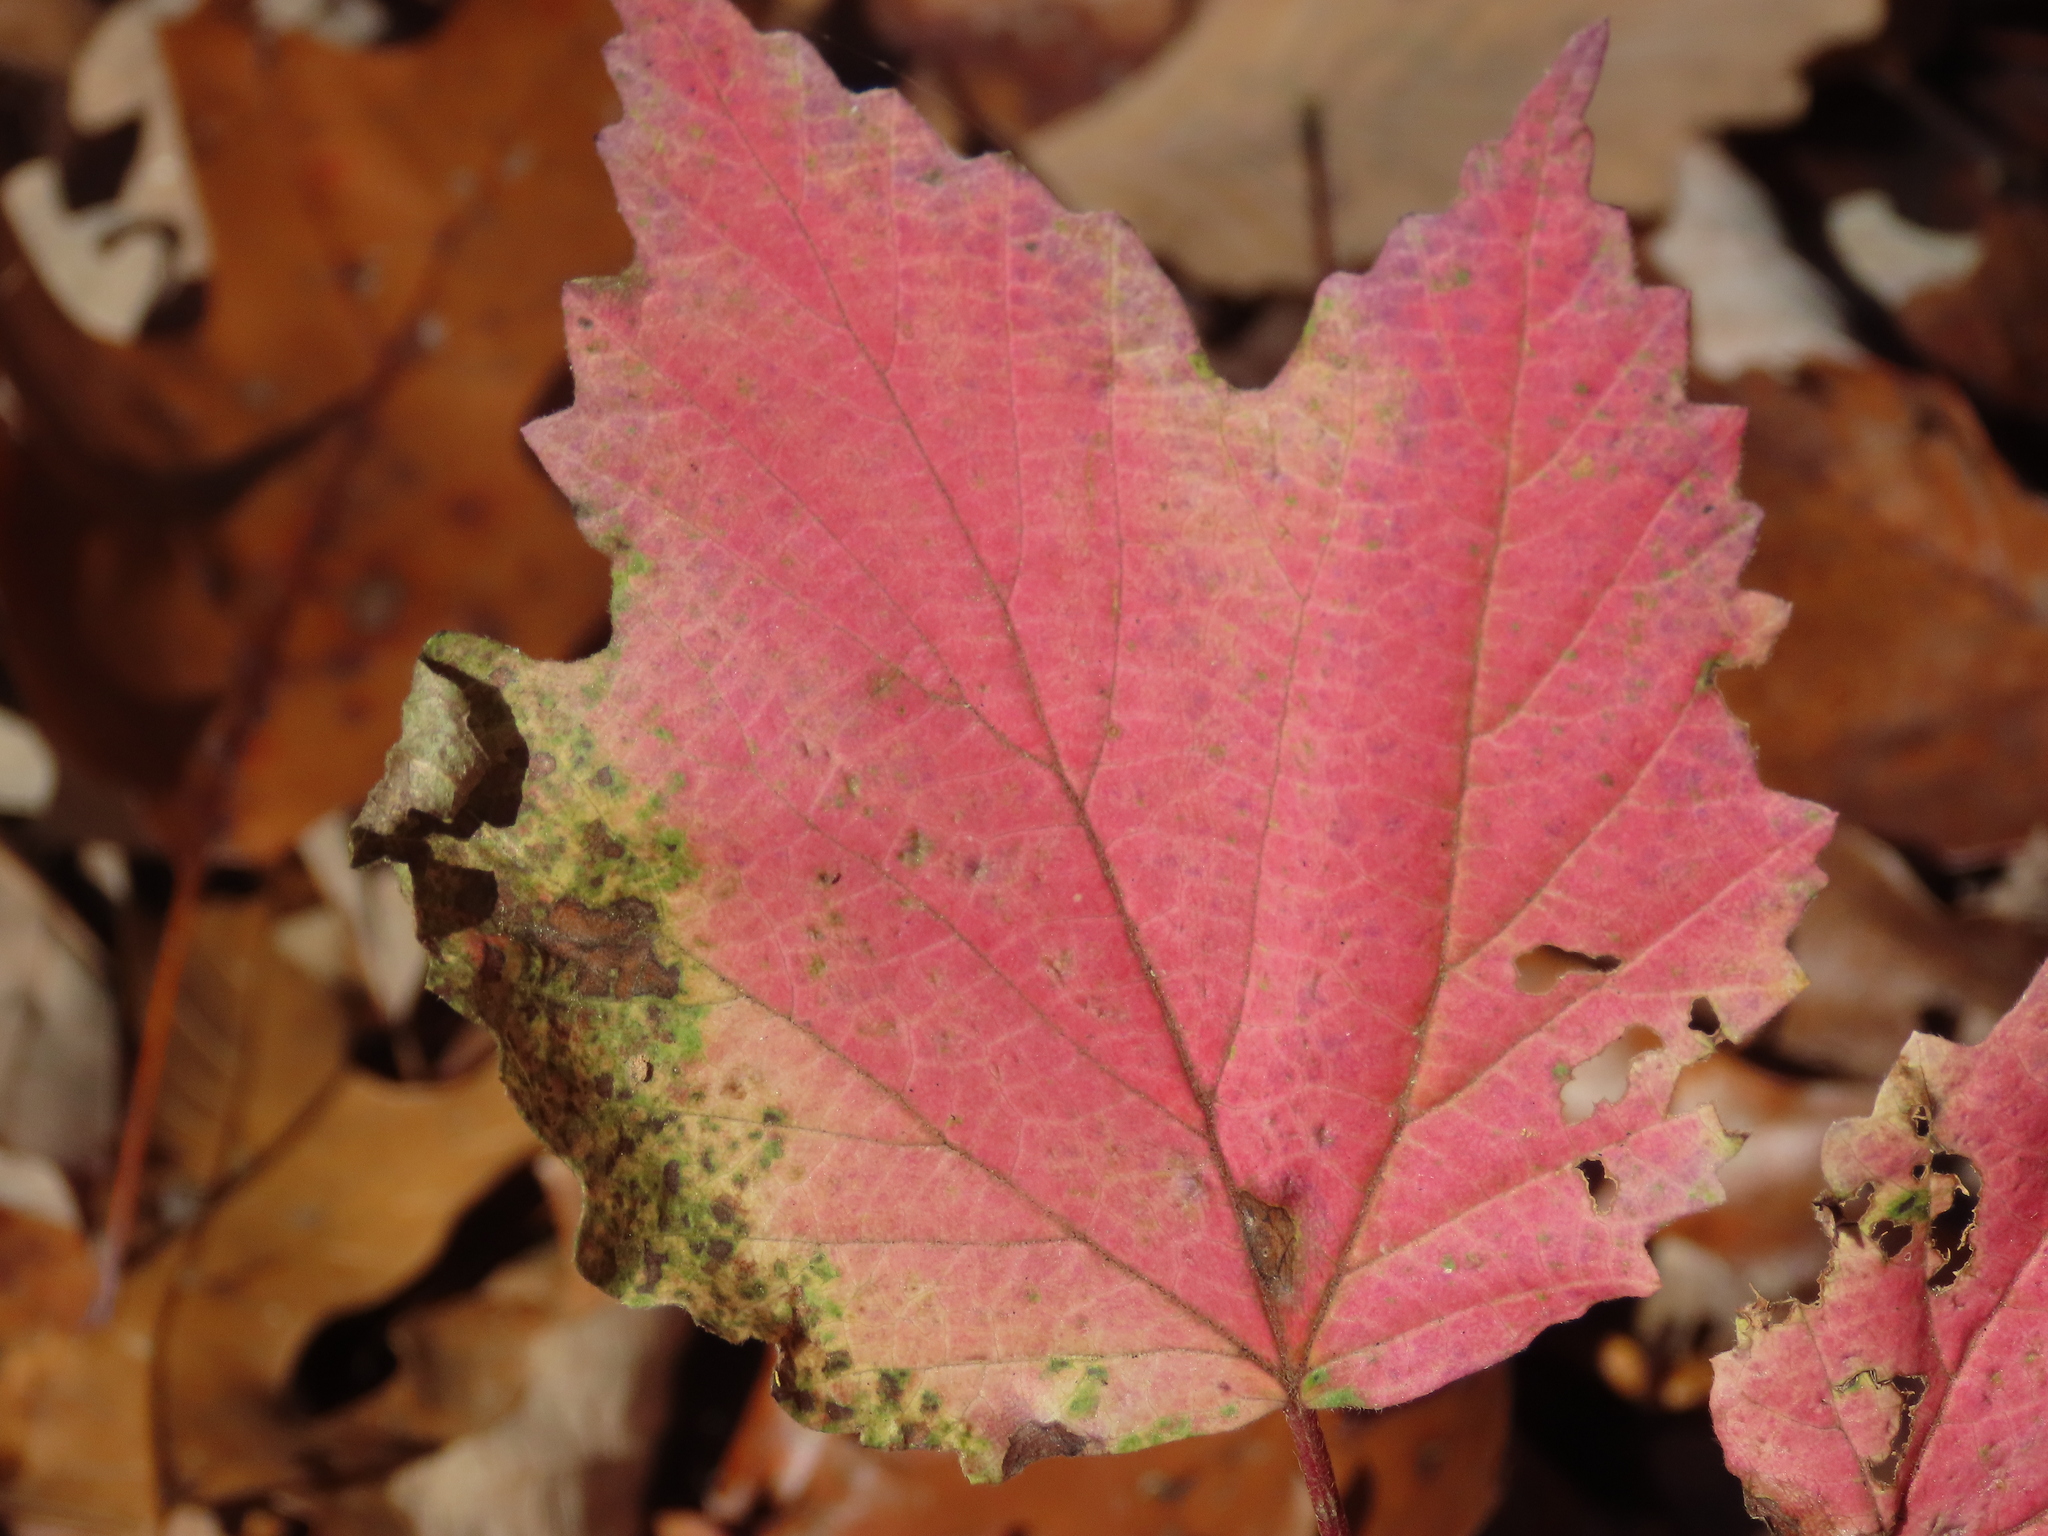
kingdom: Plantae
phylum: Tracheophyta
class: Magnoliopsida
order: Dipsacales
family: Viburnaceae
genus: Viburnum
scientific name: Viburnum acerifolium
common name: Dockmackie
